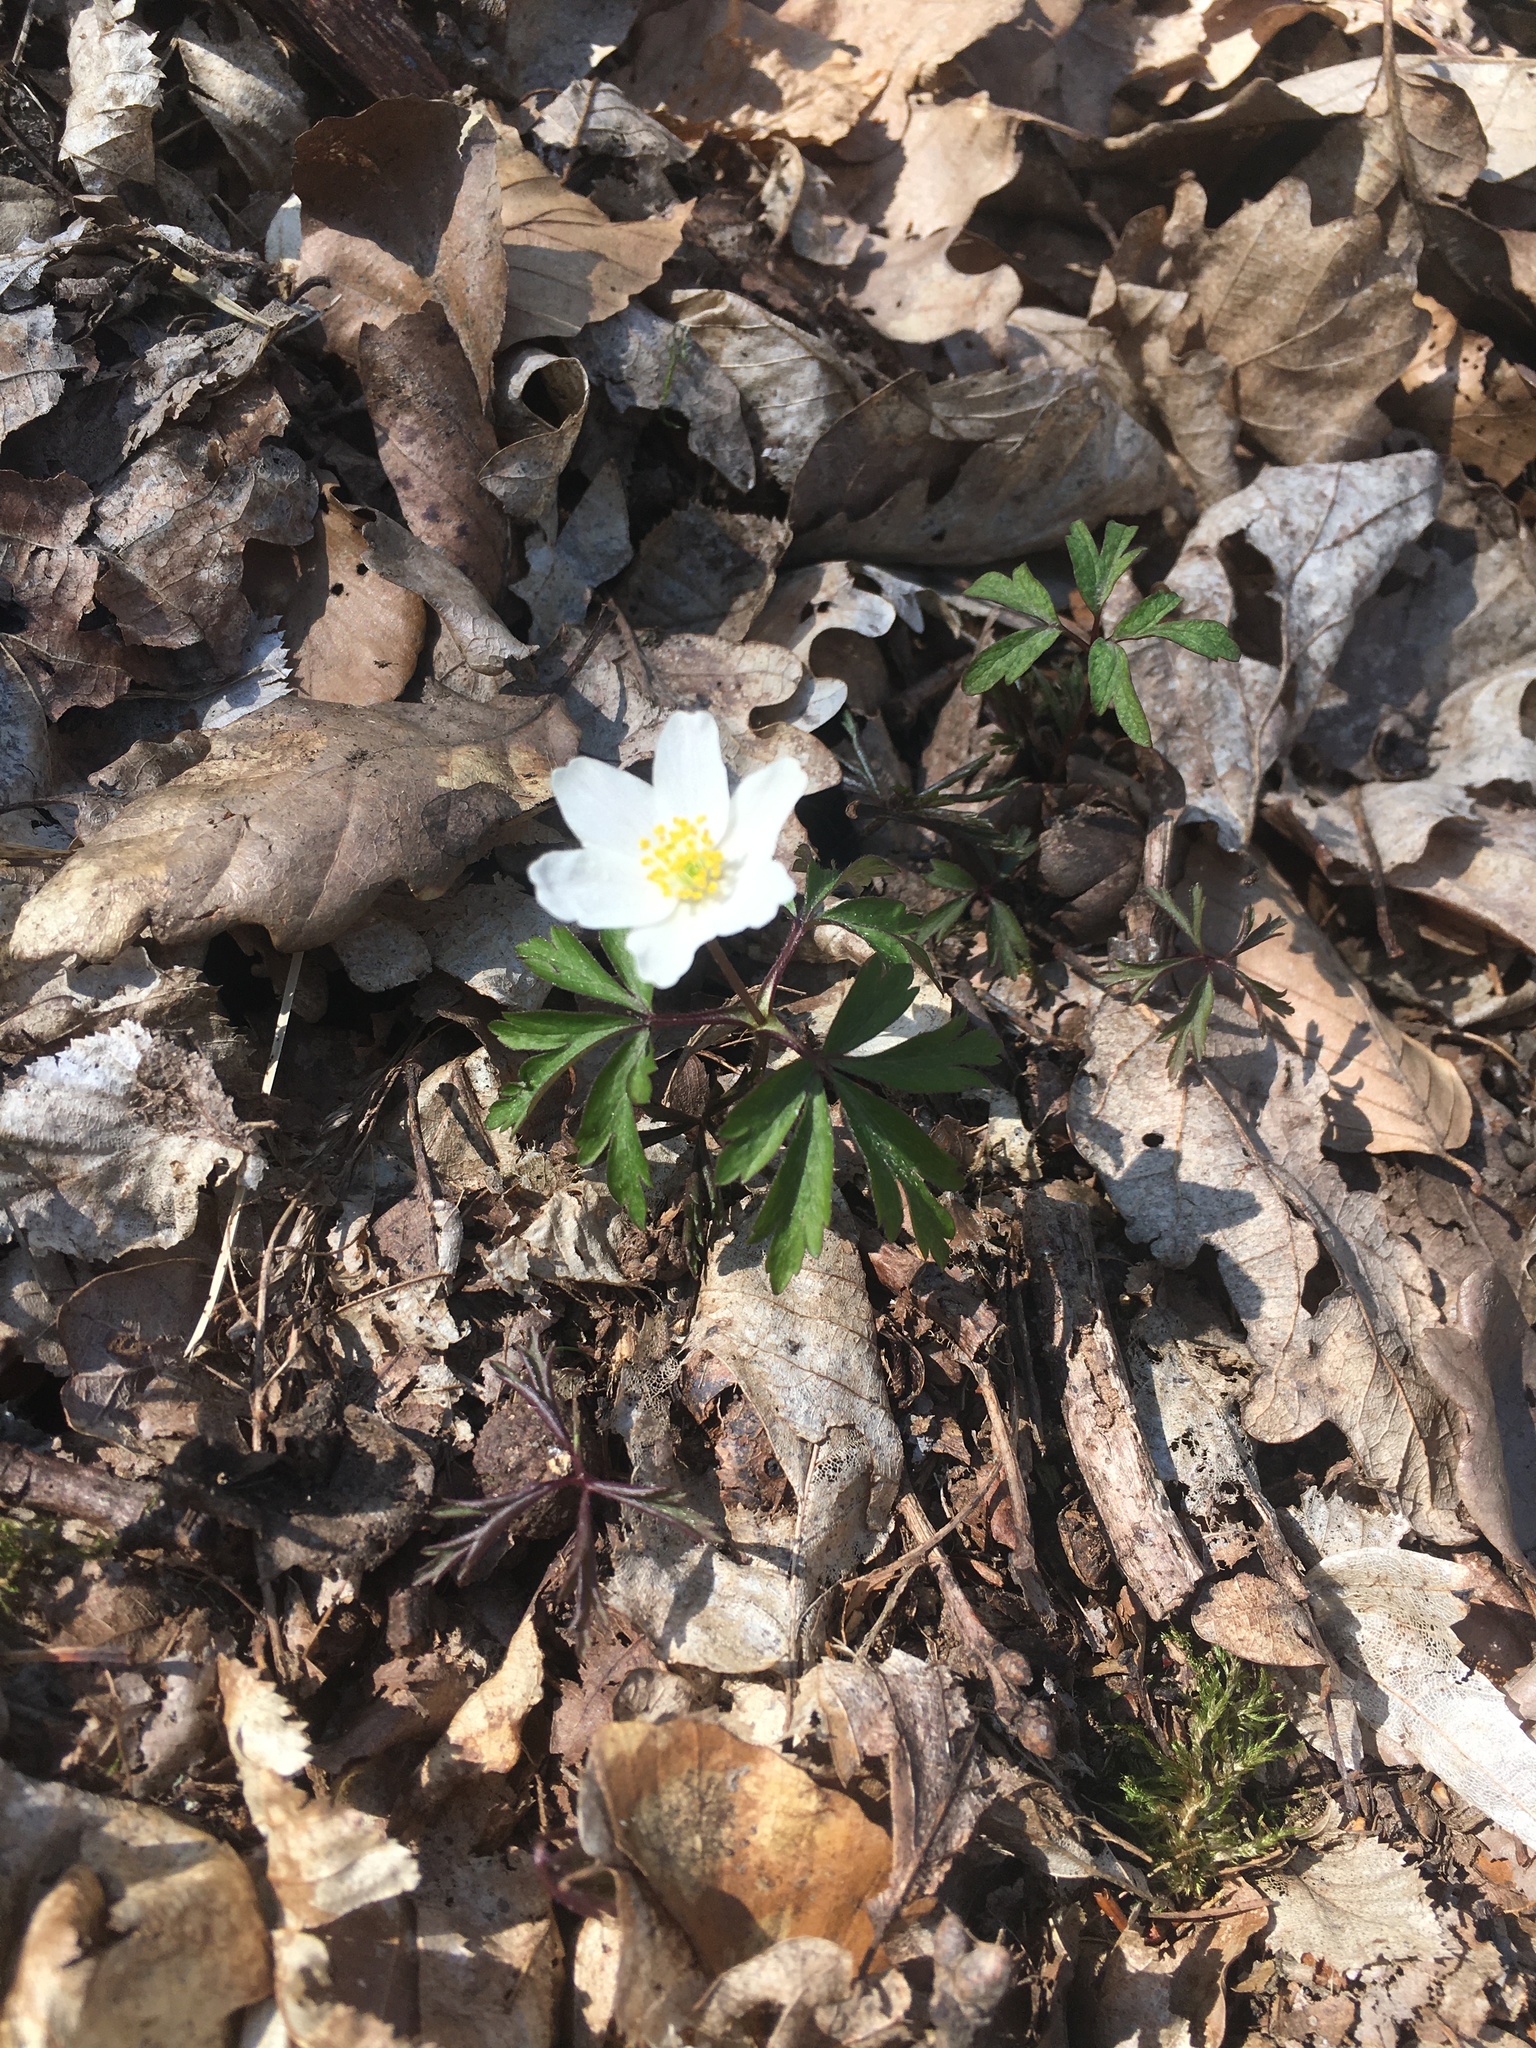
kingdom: Plantae
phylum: Tracheophyta
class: Magnoliopsida
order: Ranunculales
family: Ranunculaceae
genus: Anemone
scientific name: Anemone nemorosa
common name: Wood anemone
